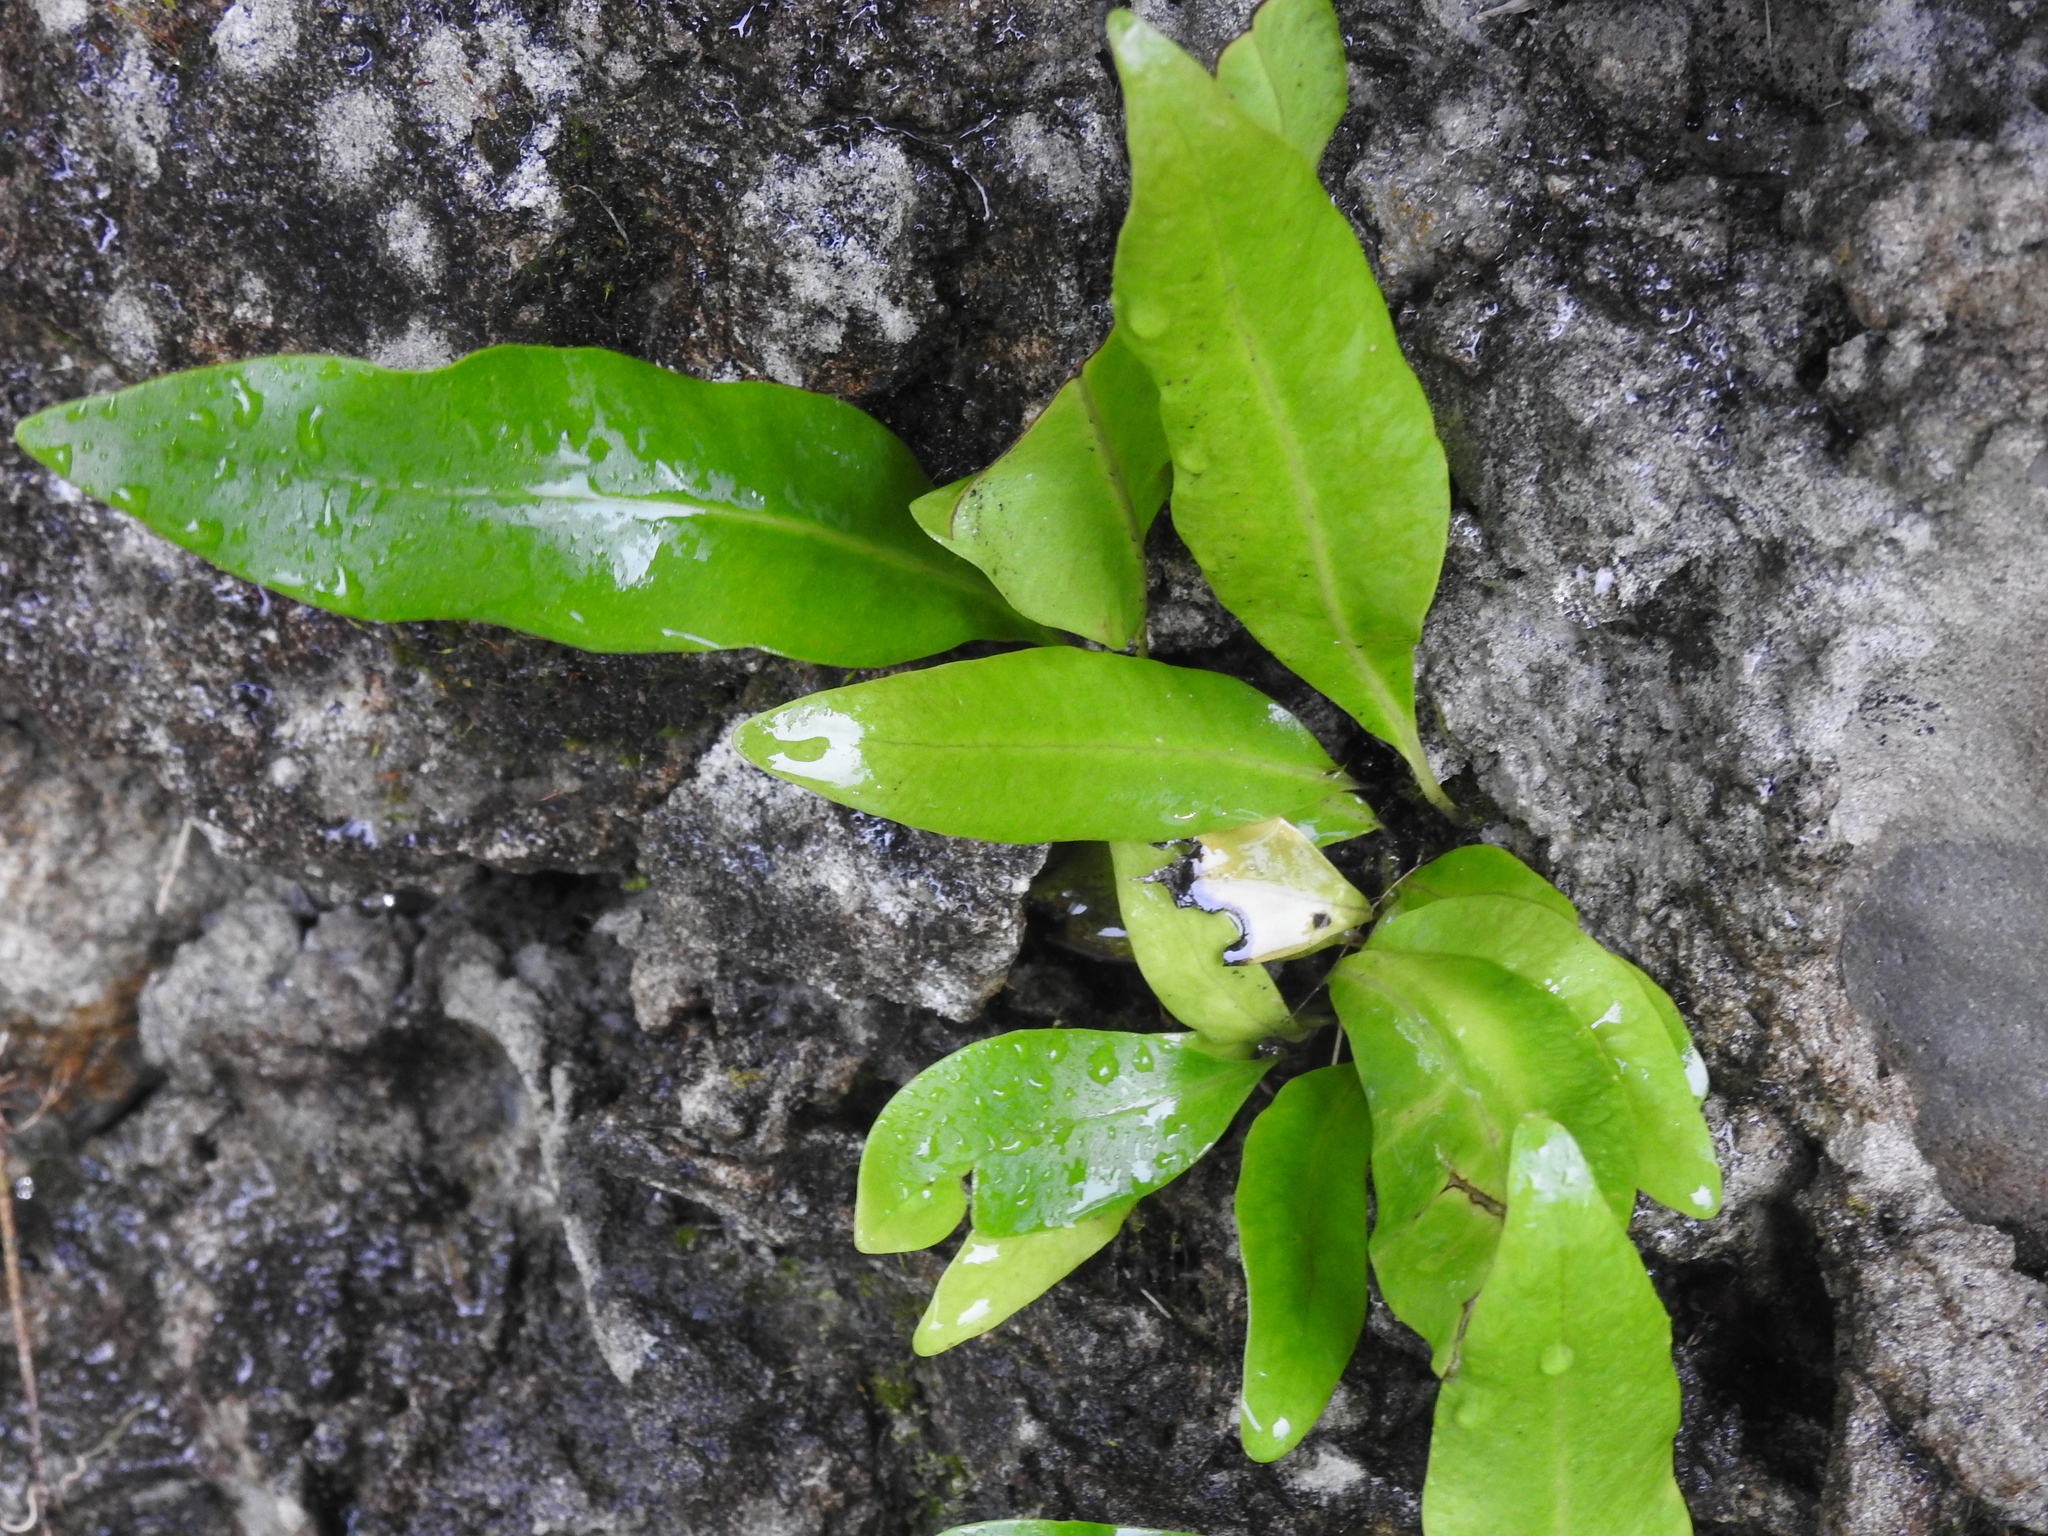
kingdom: Plantae
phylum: Tracheophyta
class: Polypodiopsida
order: Polypodiales
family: Polypodiaceae
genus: Microsorum
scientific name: Microsorum grossum
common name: Musk fern
